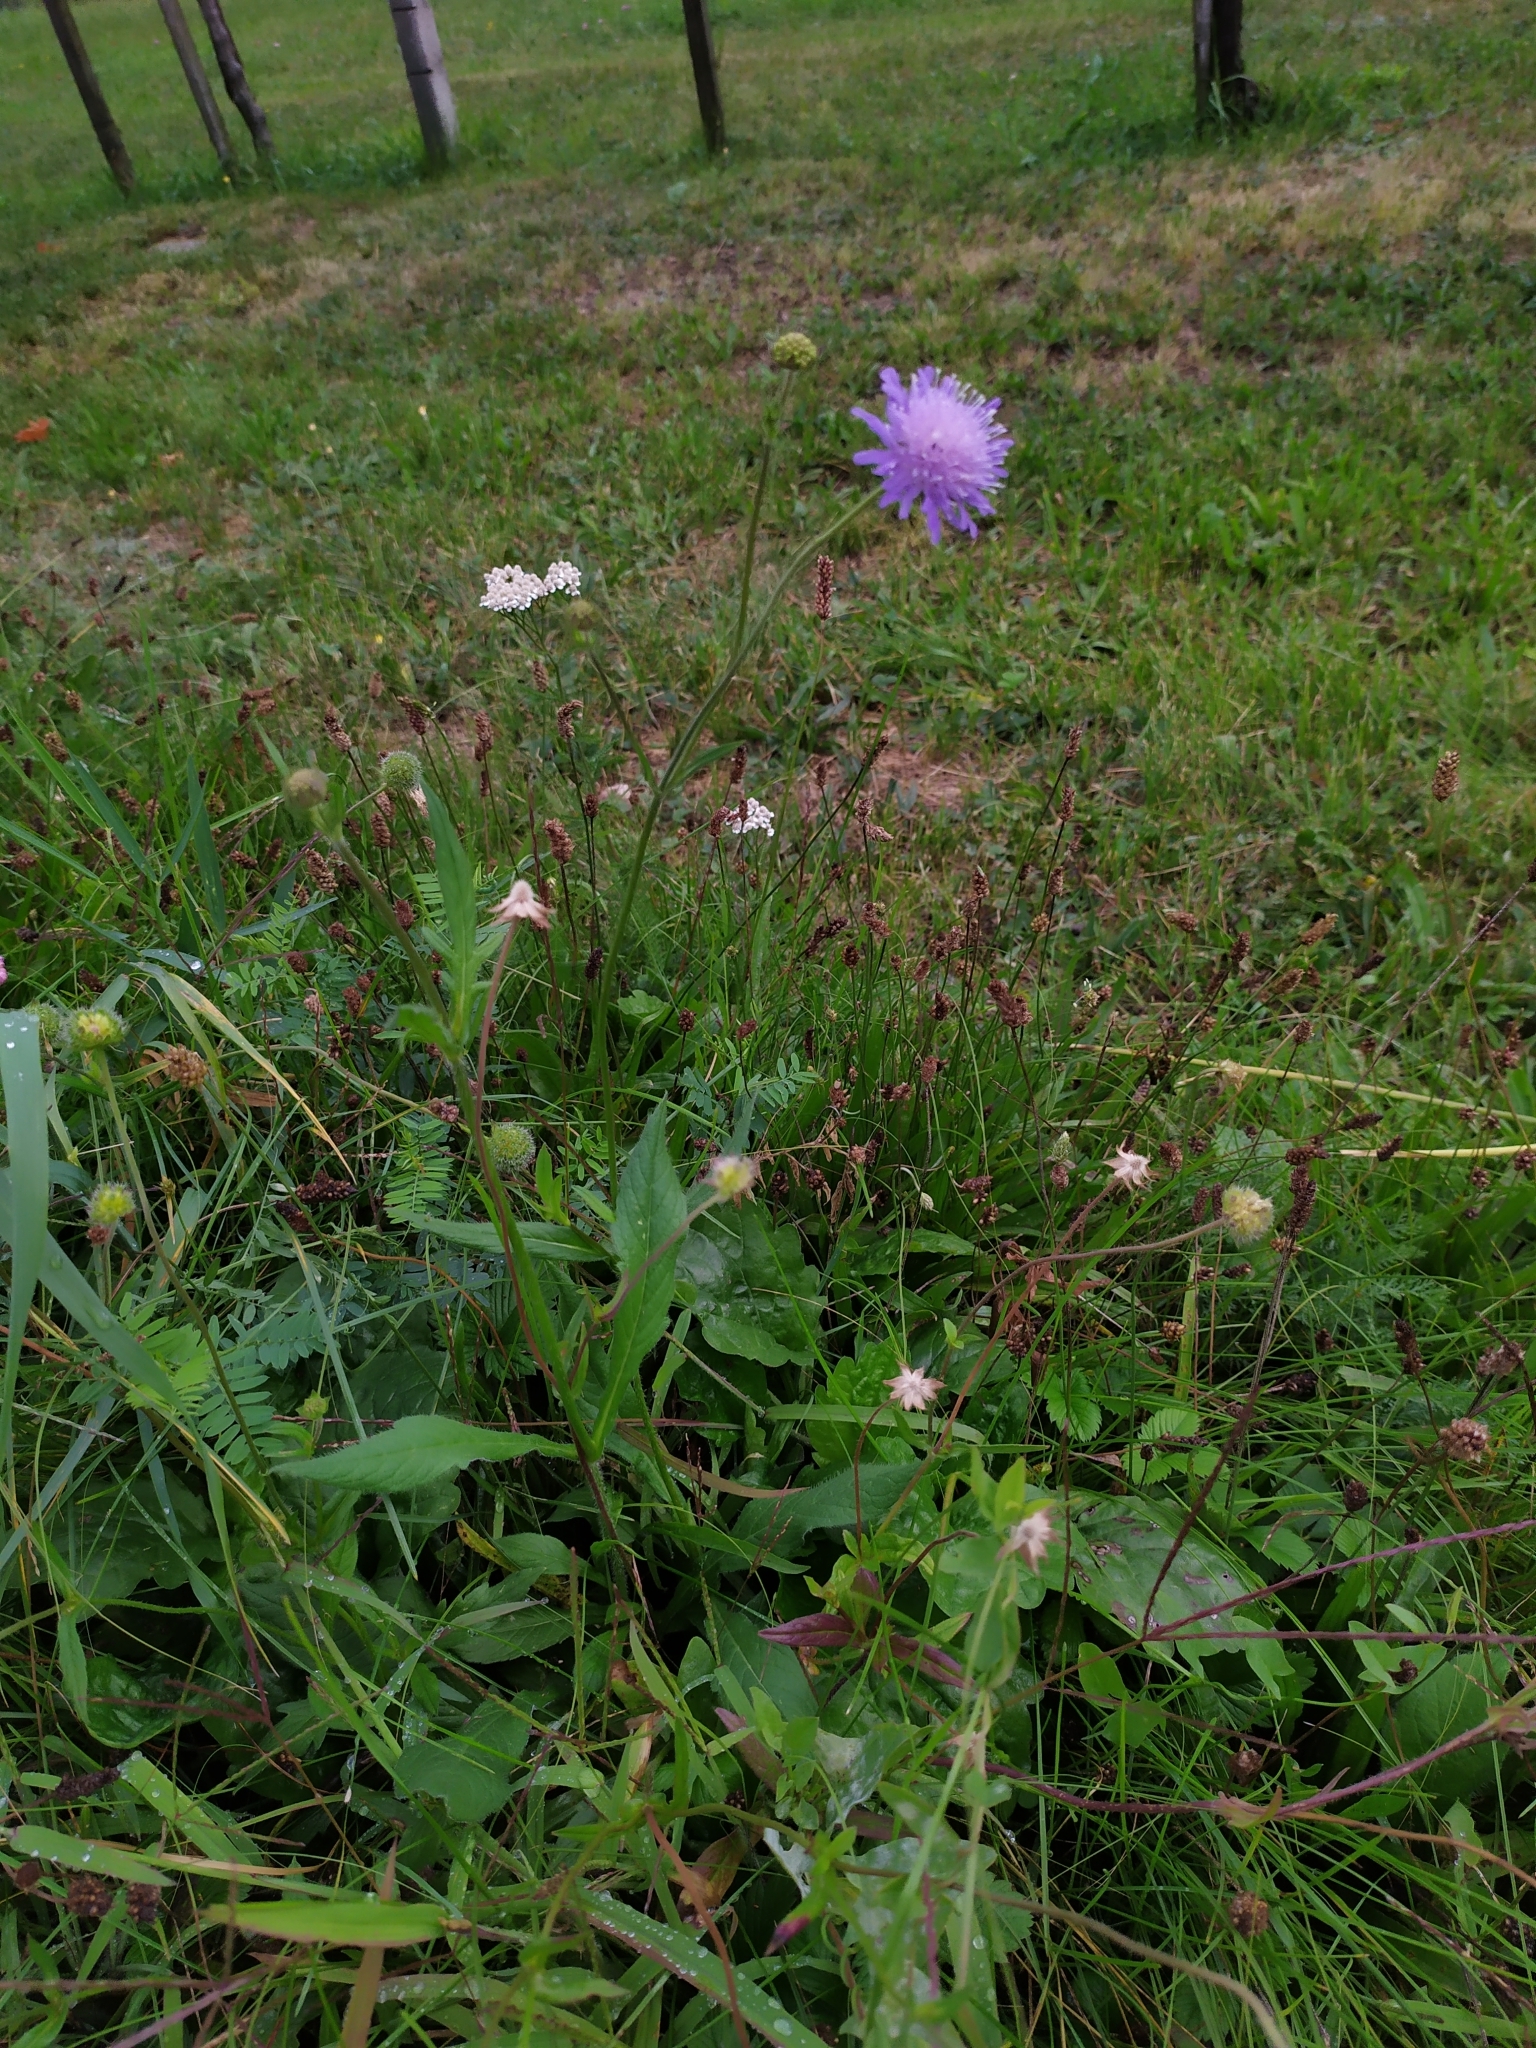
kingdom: Plantae
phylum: Tracheophyta
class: Magnoliopsida
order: Dipsacales
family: Caprifoliaceae
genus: Knautia
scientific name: Knautia arvensis
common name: Field scabiosa
